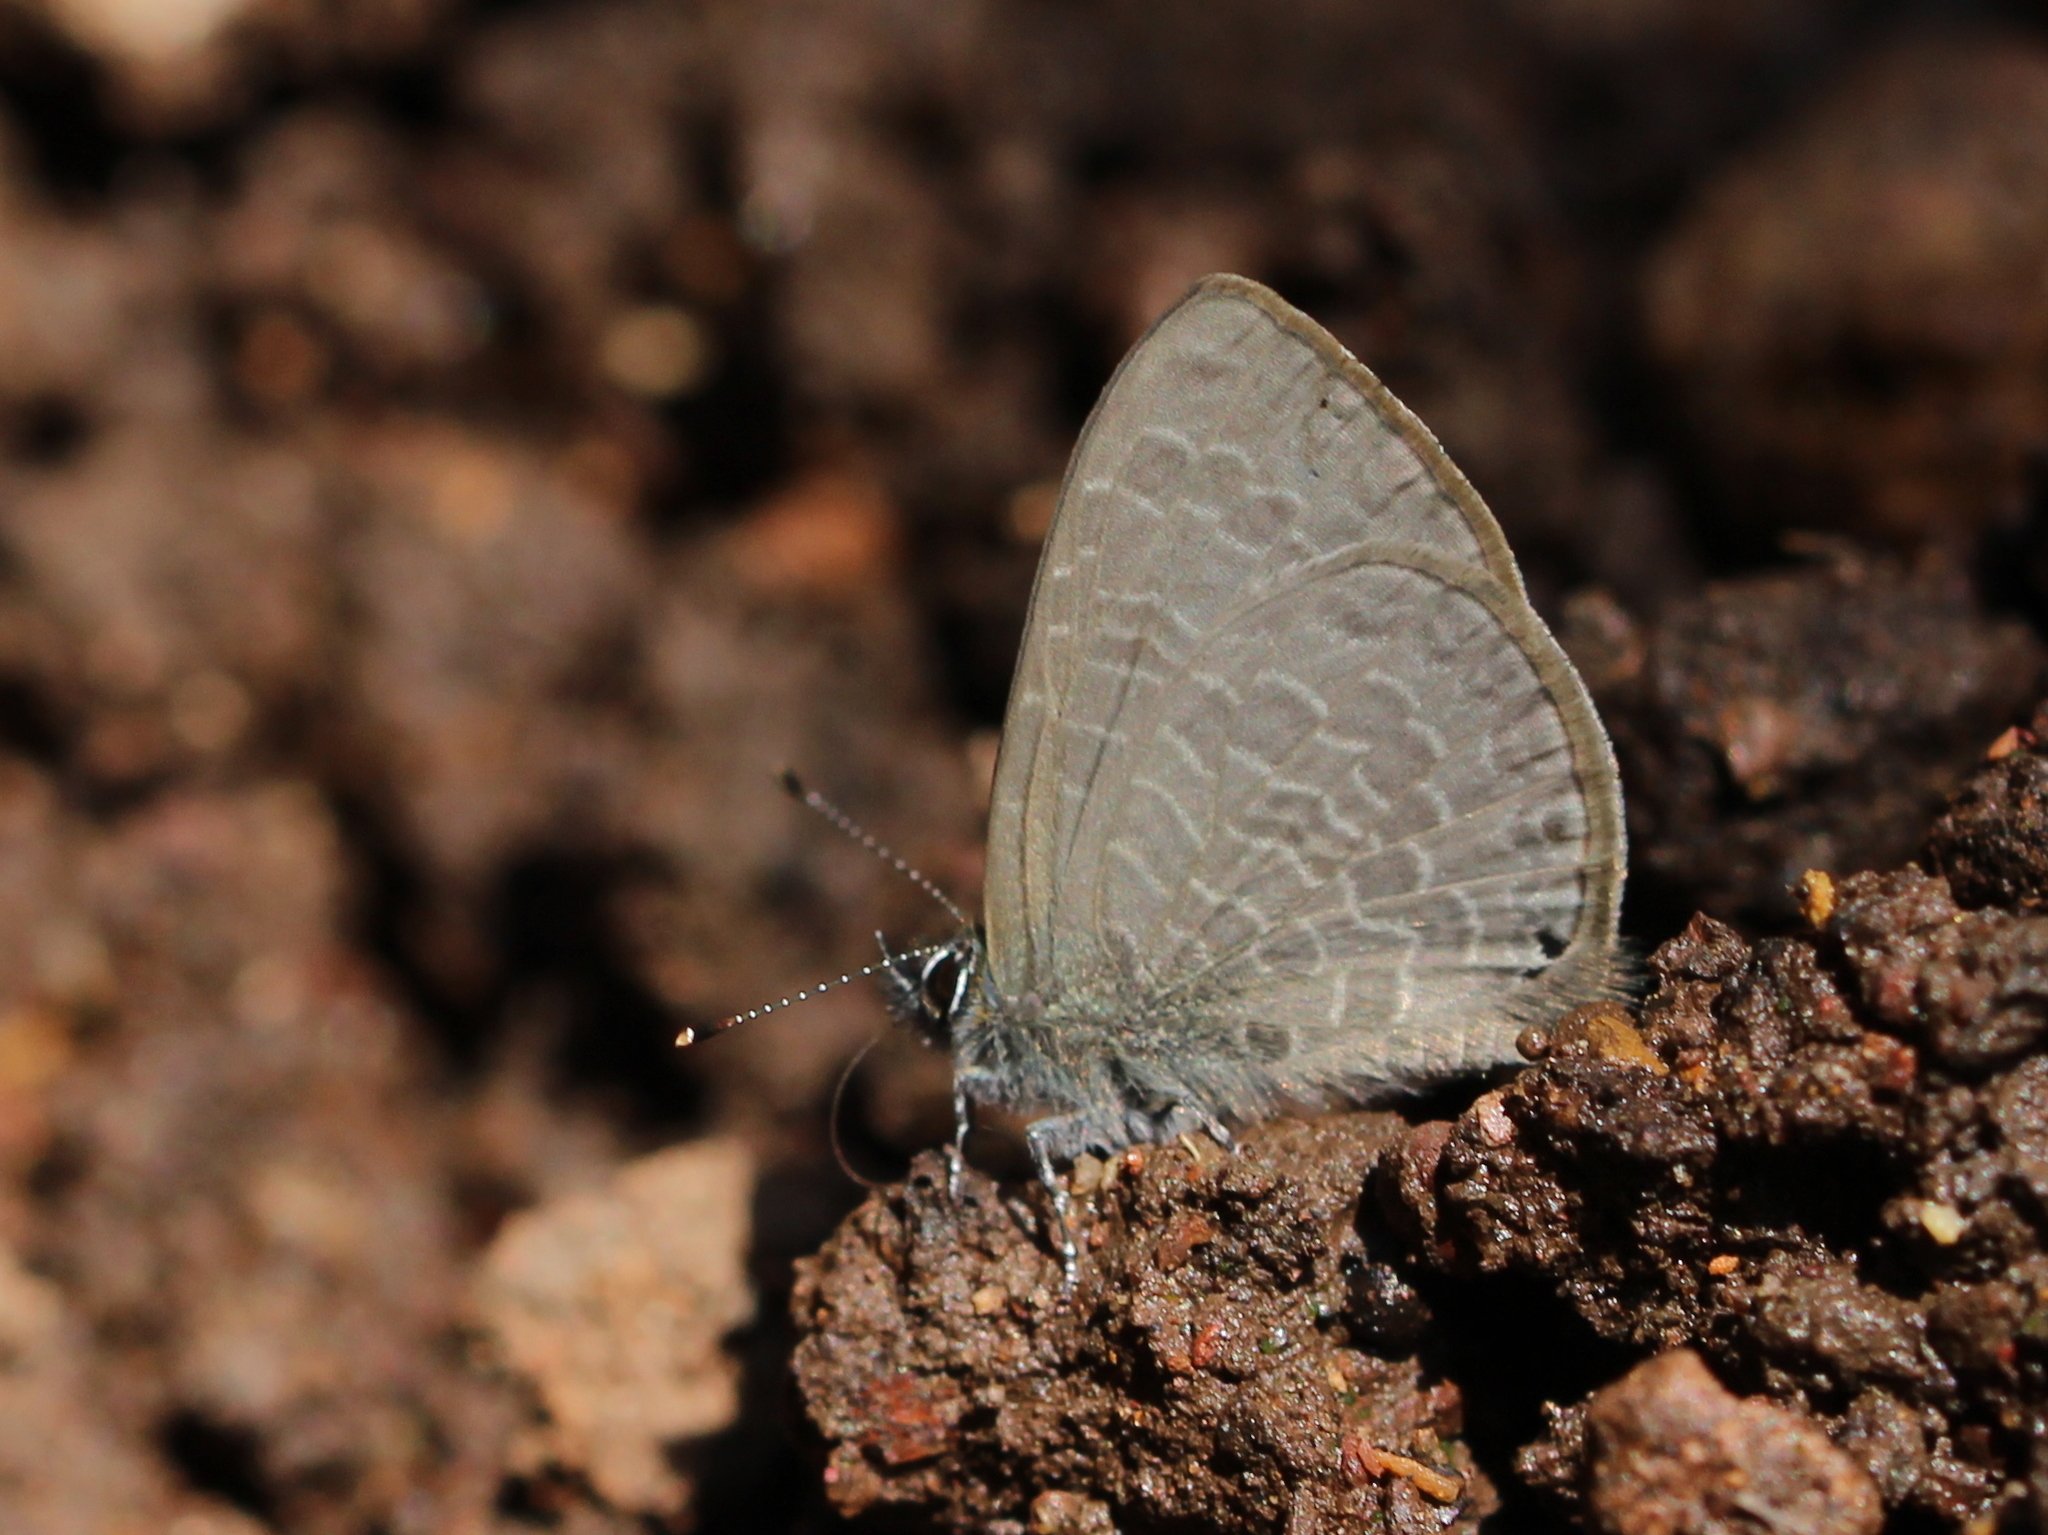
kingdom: Animalia
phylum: Arthropoda
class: Insecta
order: Lepidoptera
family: Lycaenidae
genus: Petrelaea
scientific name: Petrelaea dana
